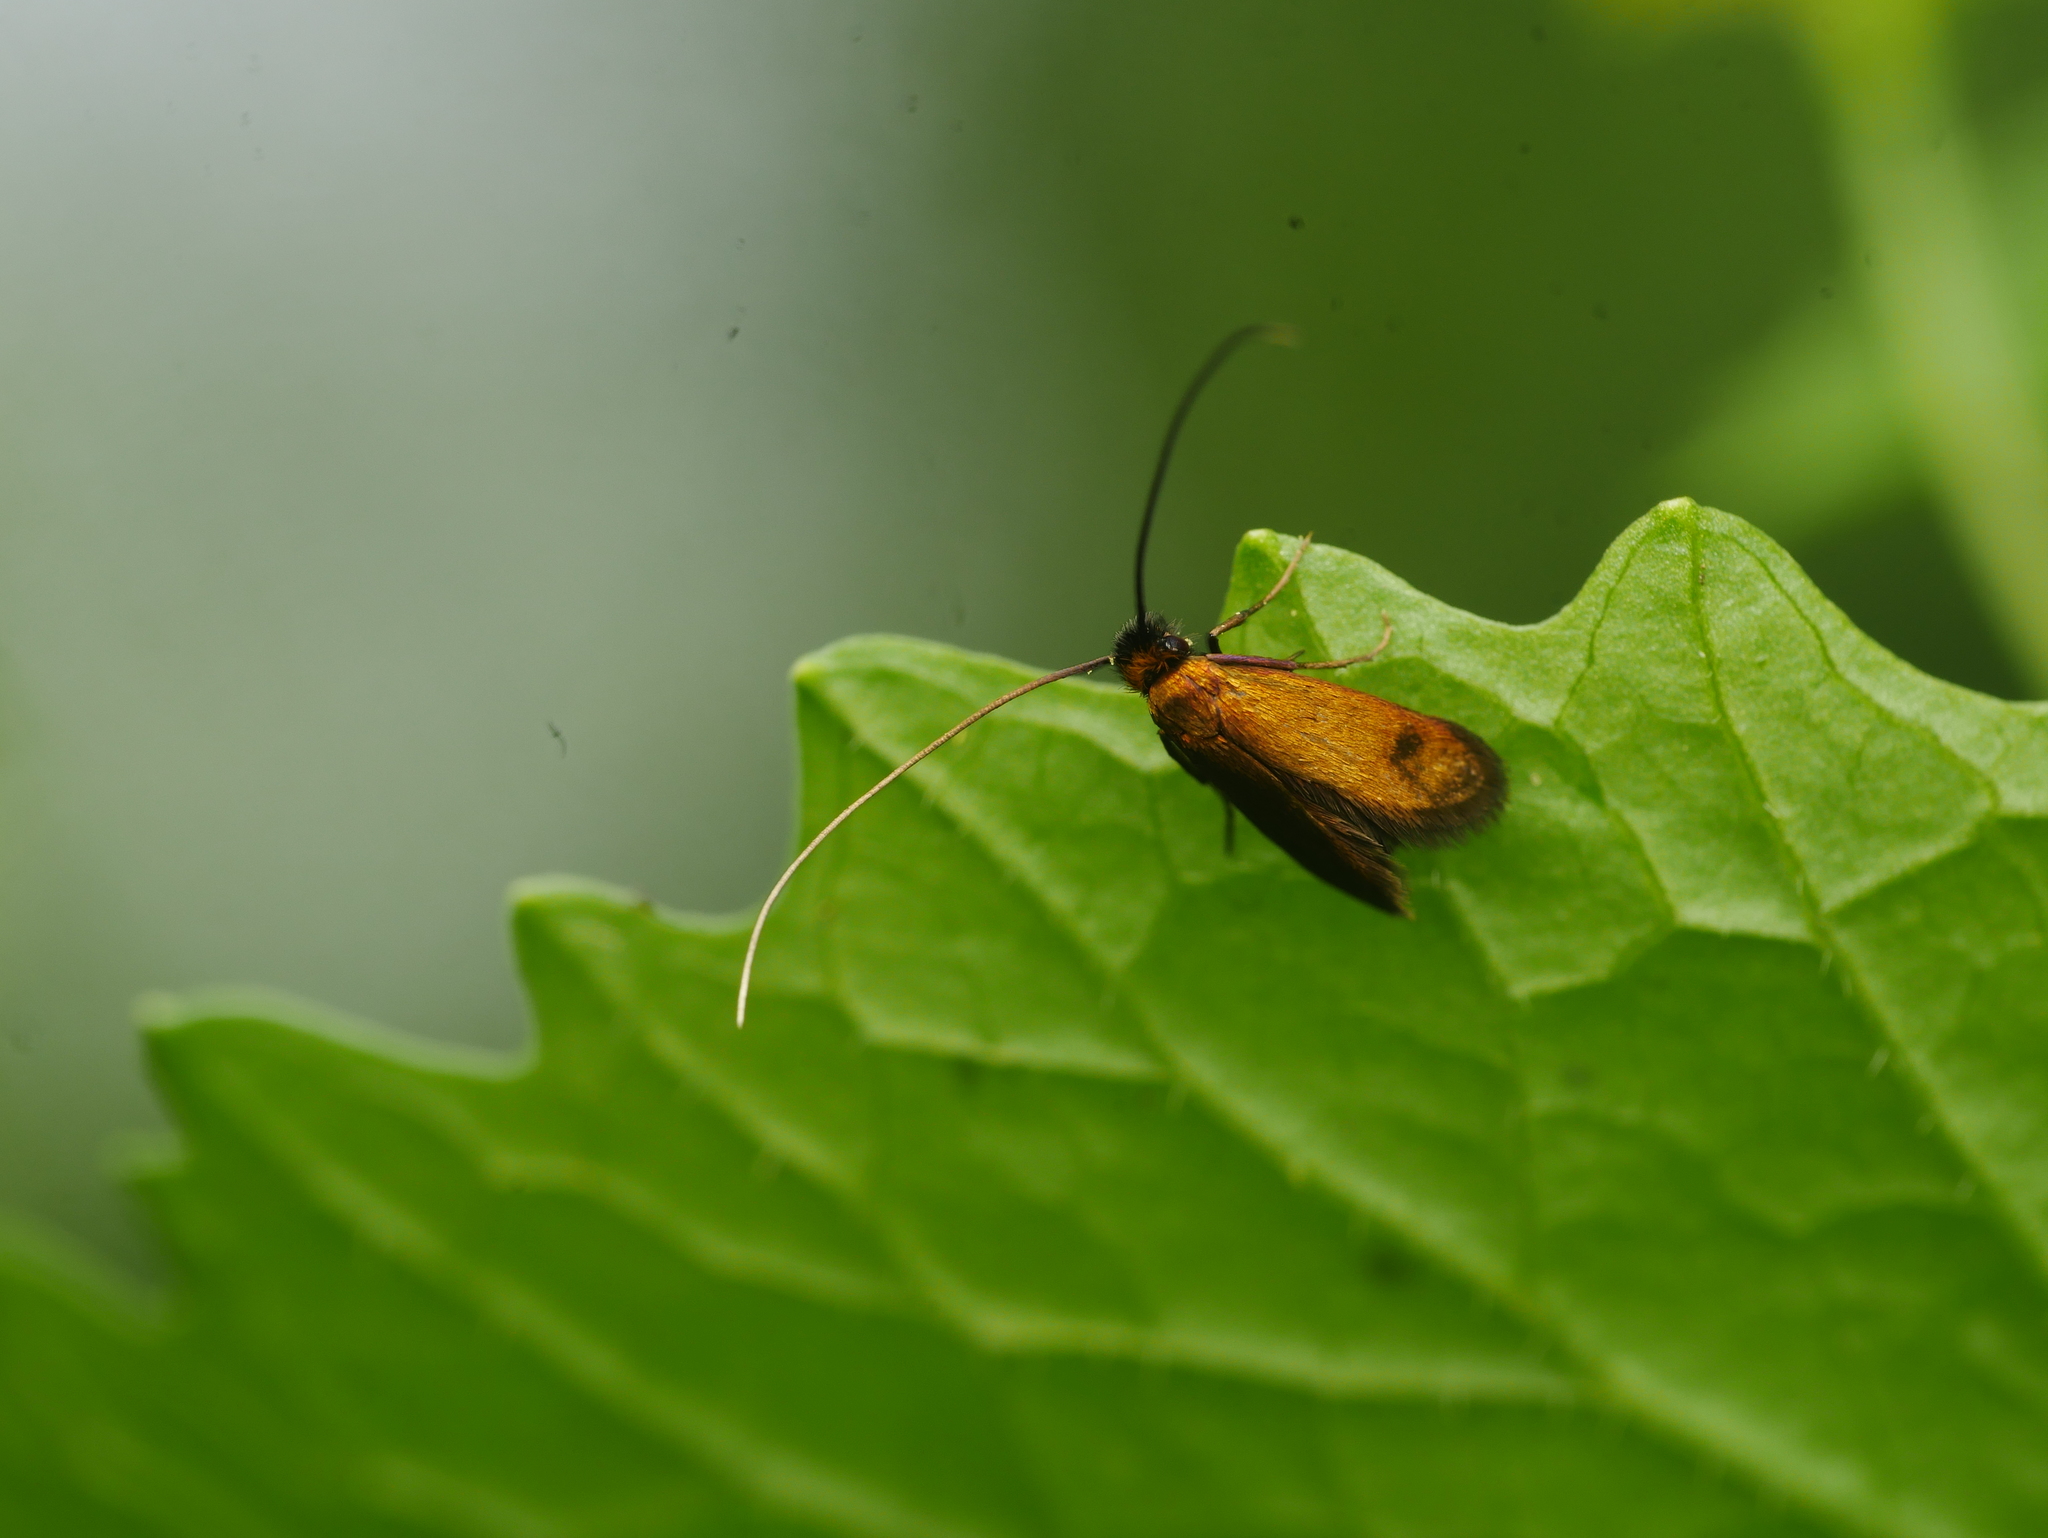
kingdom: Animalia
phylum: Arthropoda
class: Insecta
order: Lepidoptera
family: Adelidae
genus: Cauchas
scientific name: Cauchas rufimitrella
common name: Meadow long-horn
